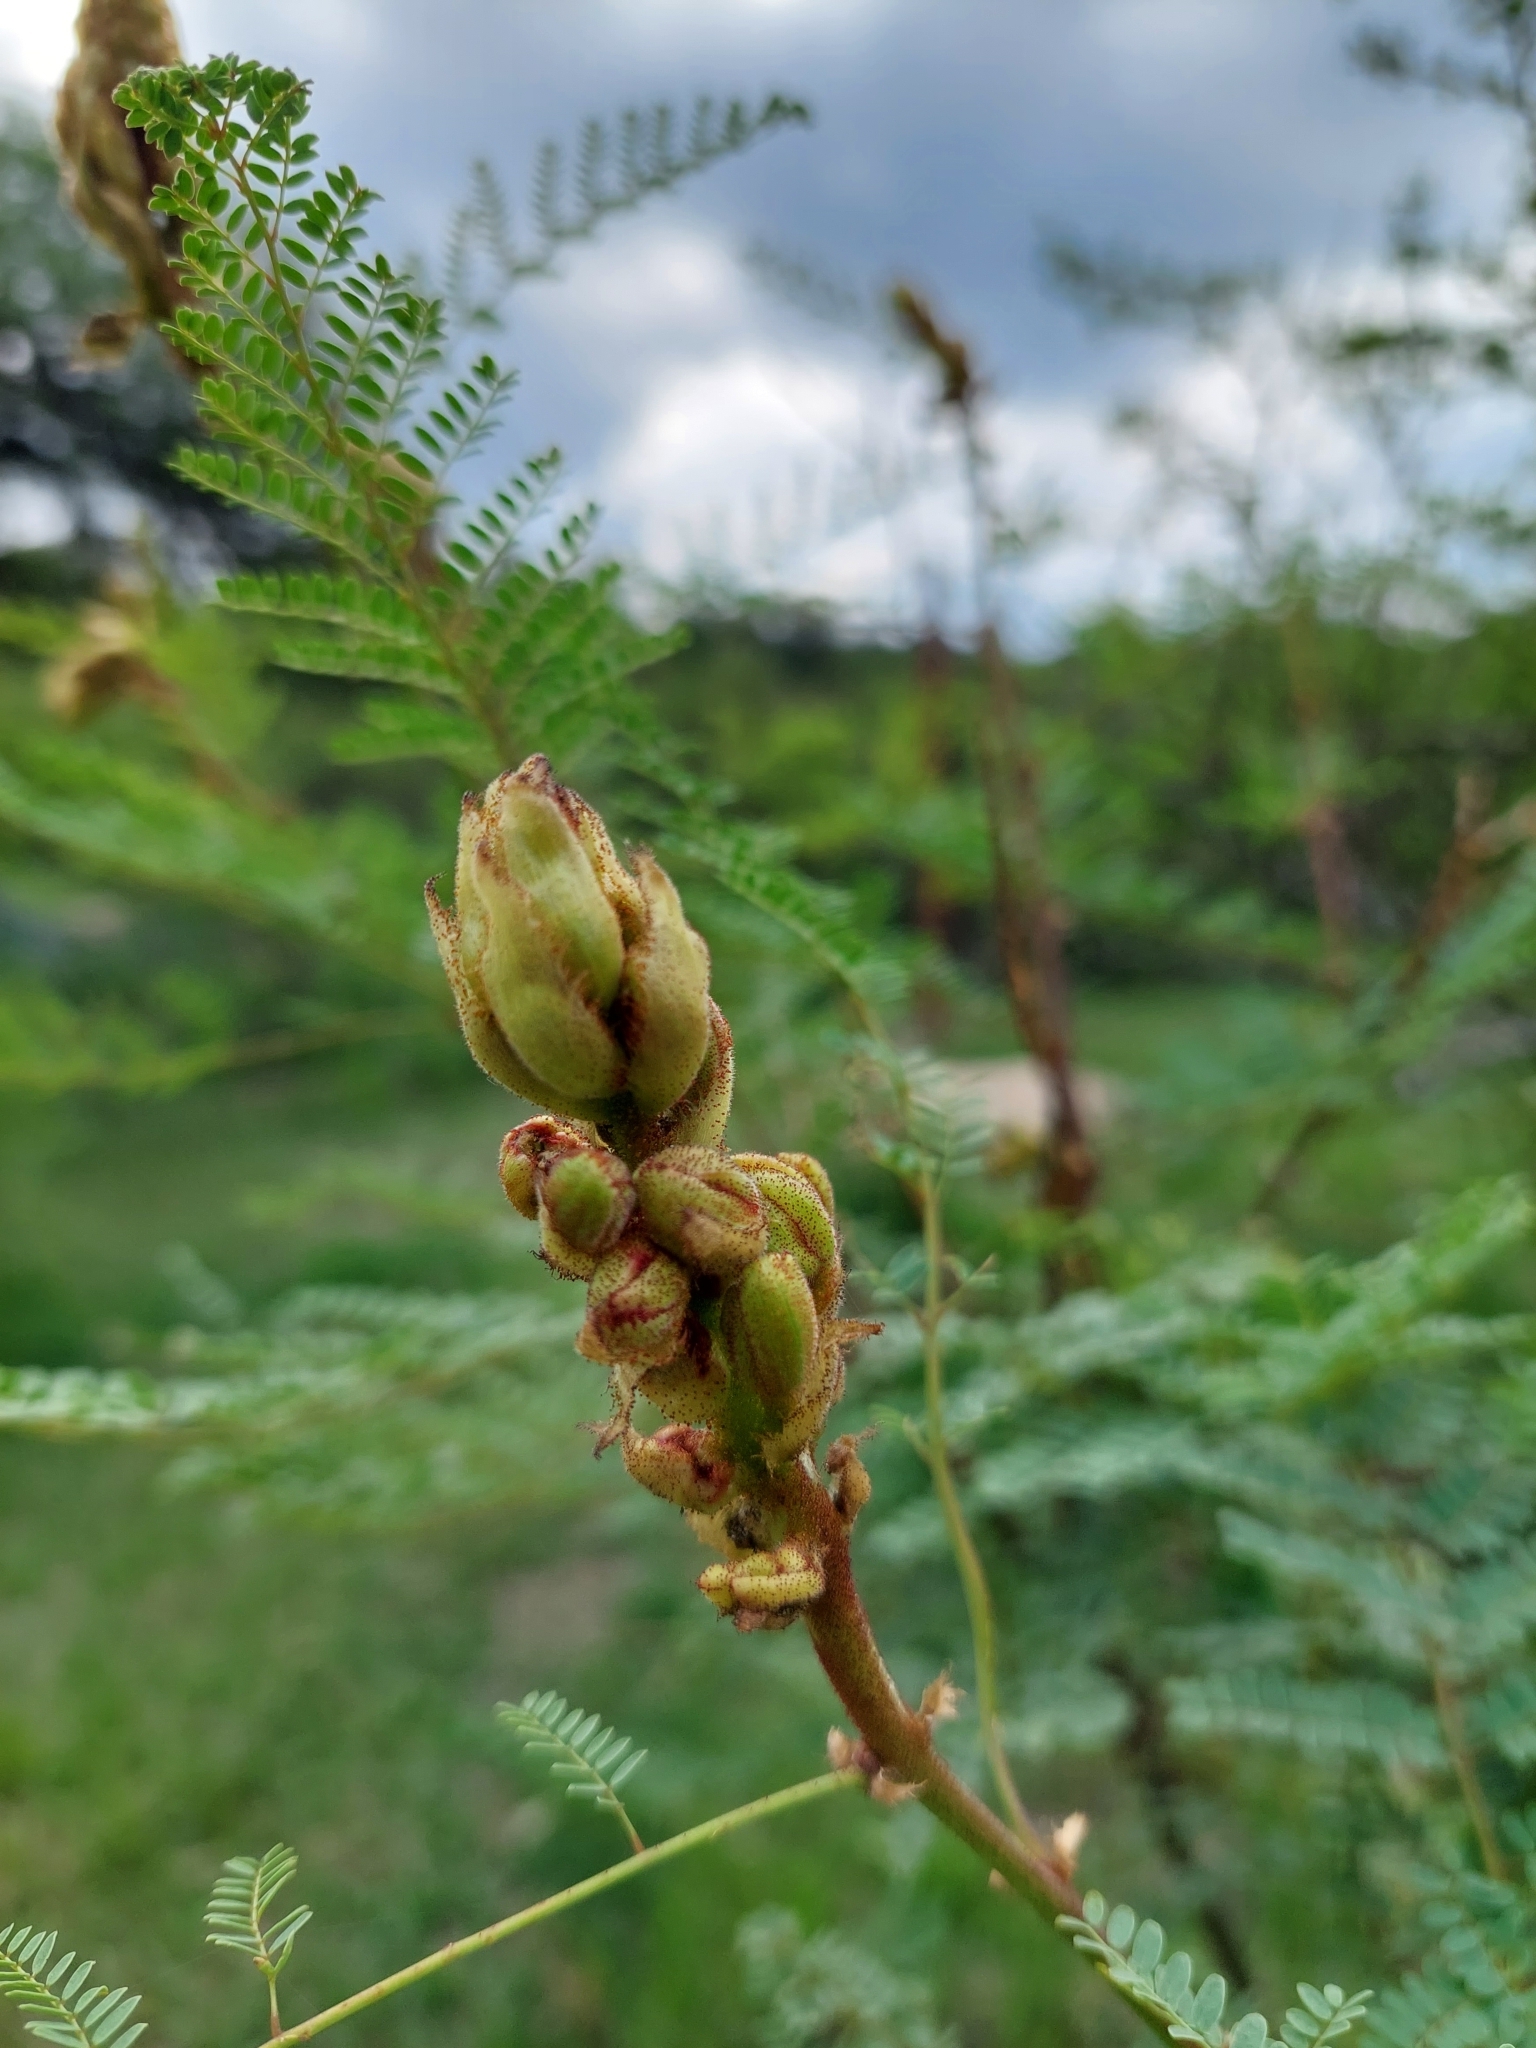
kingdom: Plantae
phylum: Tracheophyta
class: Magnoliopsida
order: Fabales
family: Fabaceae
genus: Erythrostemon
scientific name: Erythrostemon gilliesii
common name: Bird-of-paradise shrub
